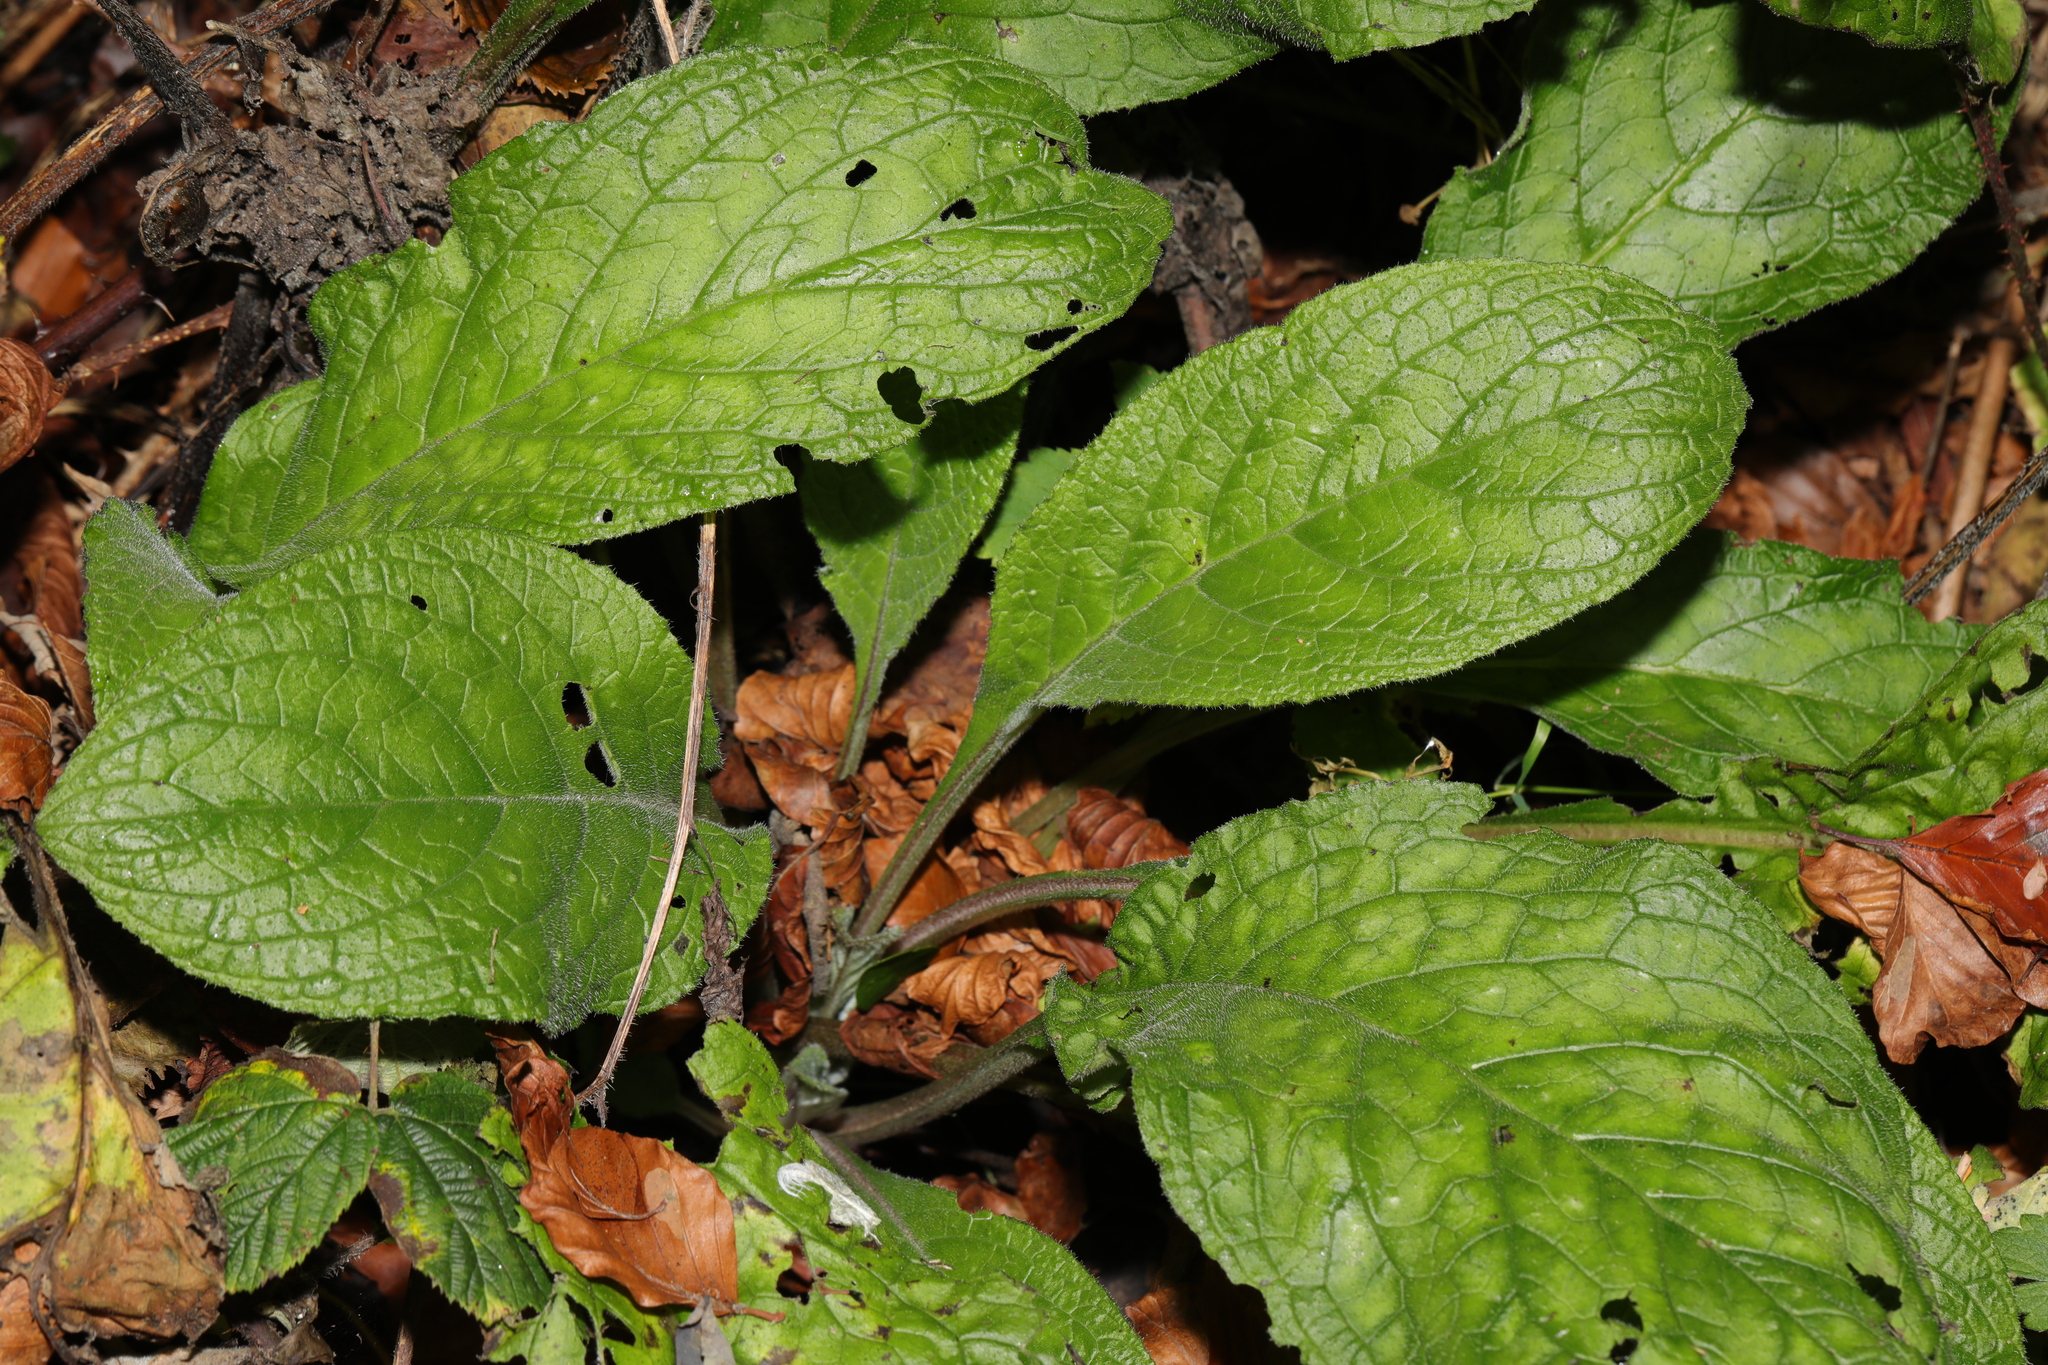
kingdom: Plantae
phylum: Tracheophyta
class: Magnoliopsida
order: Boraginales
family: Boraginaceae
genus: Pentaglottis
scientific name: Pentaglottis sempervirens
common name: Green alkanet
